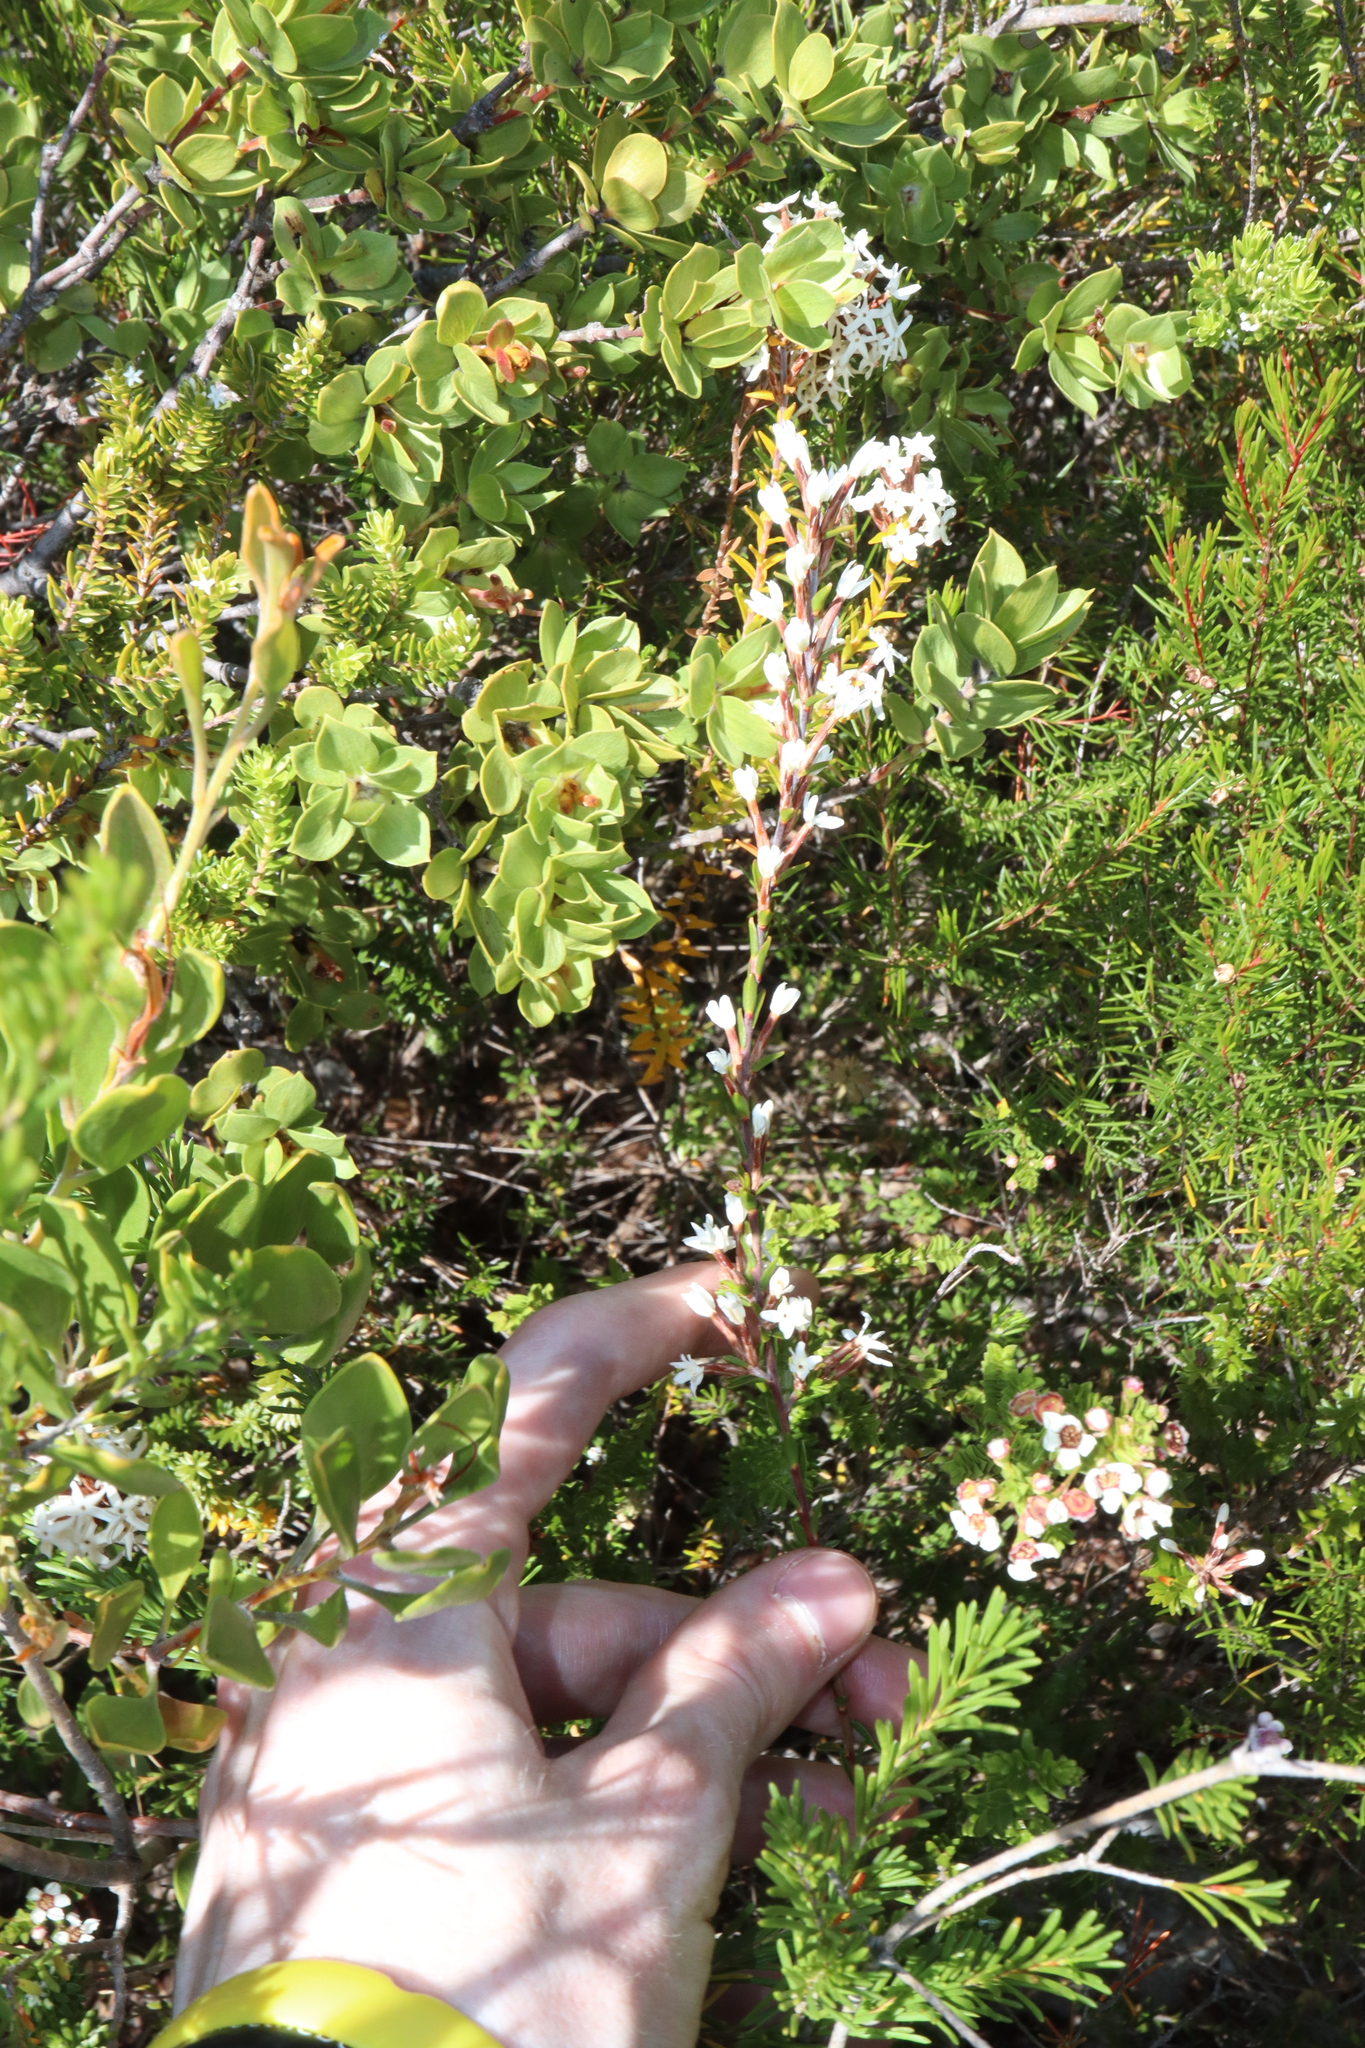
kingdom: Plantae
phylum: Tracheophyta
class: Magnoliopsida
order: Ericales
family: Ericaceae
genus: Lysinema
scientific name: Lysinema pentapetalum
